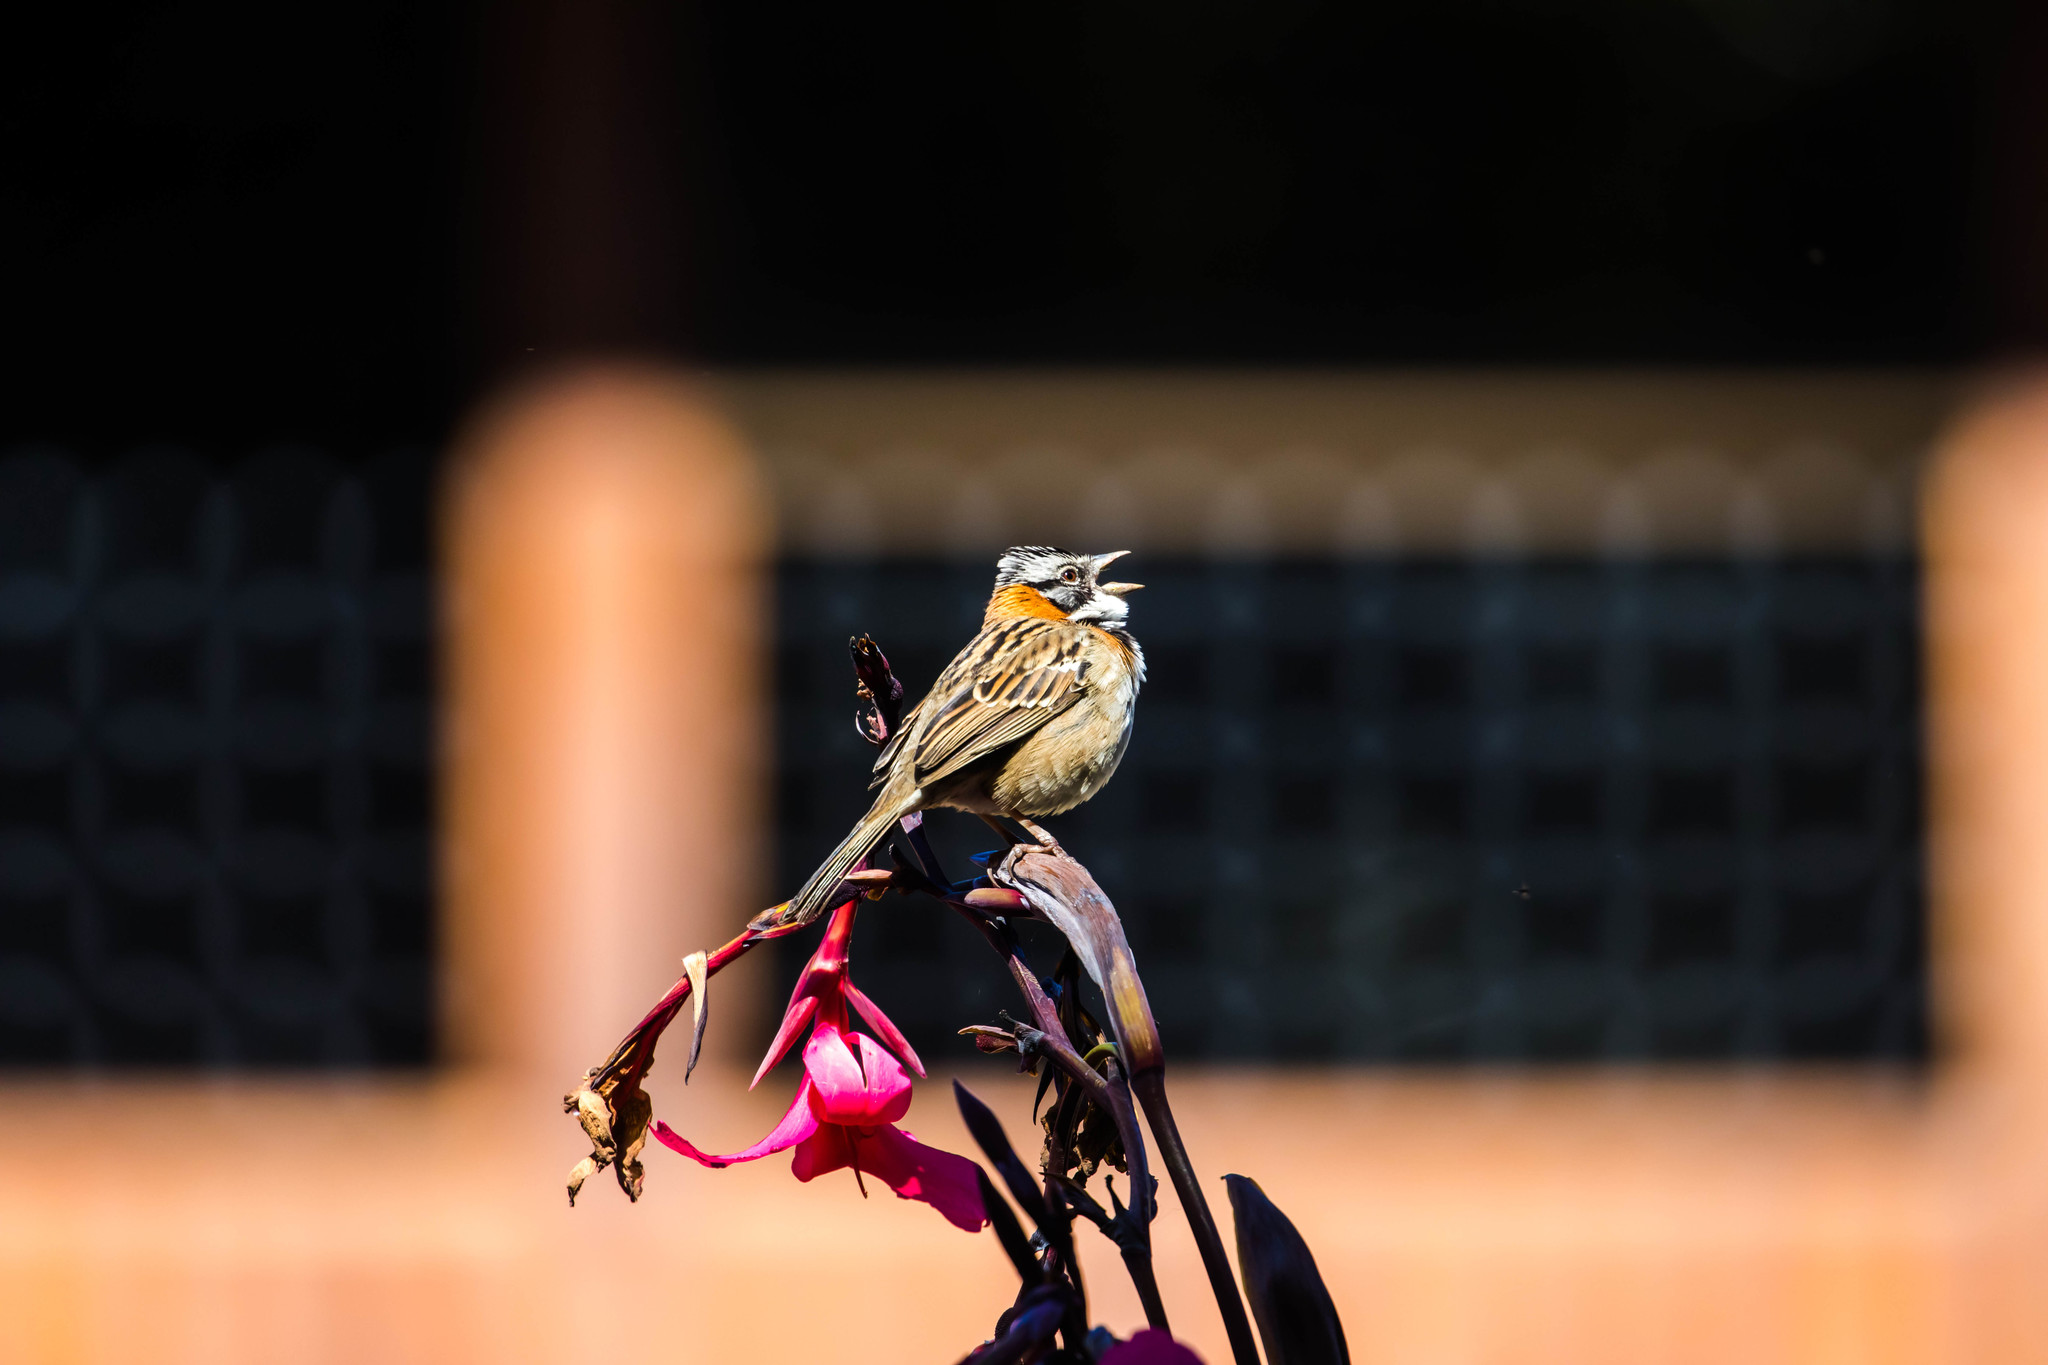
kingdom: Animalia
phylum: Chordata
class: Aves
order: Passeriformes
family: Passerellidae
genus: Zonotrichia
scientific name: Zonotrichia capensis
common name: Rufous-collared sparrow
